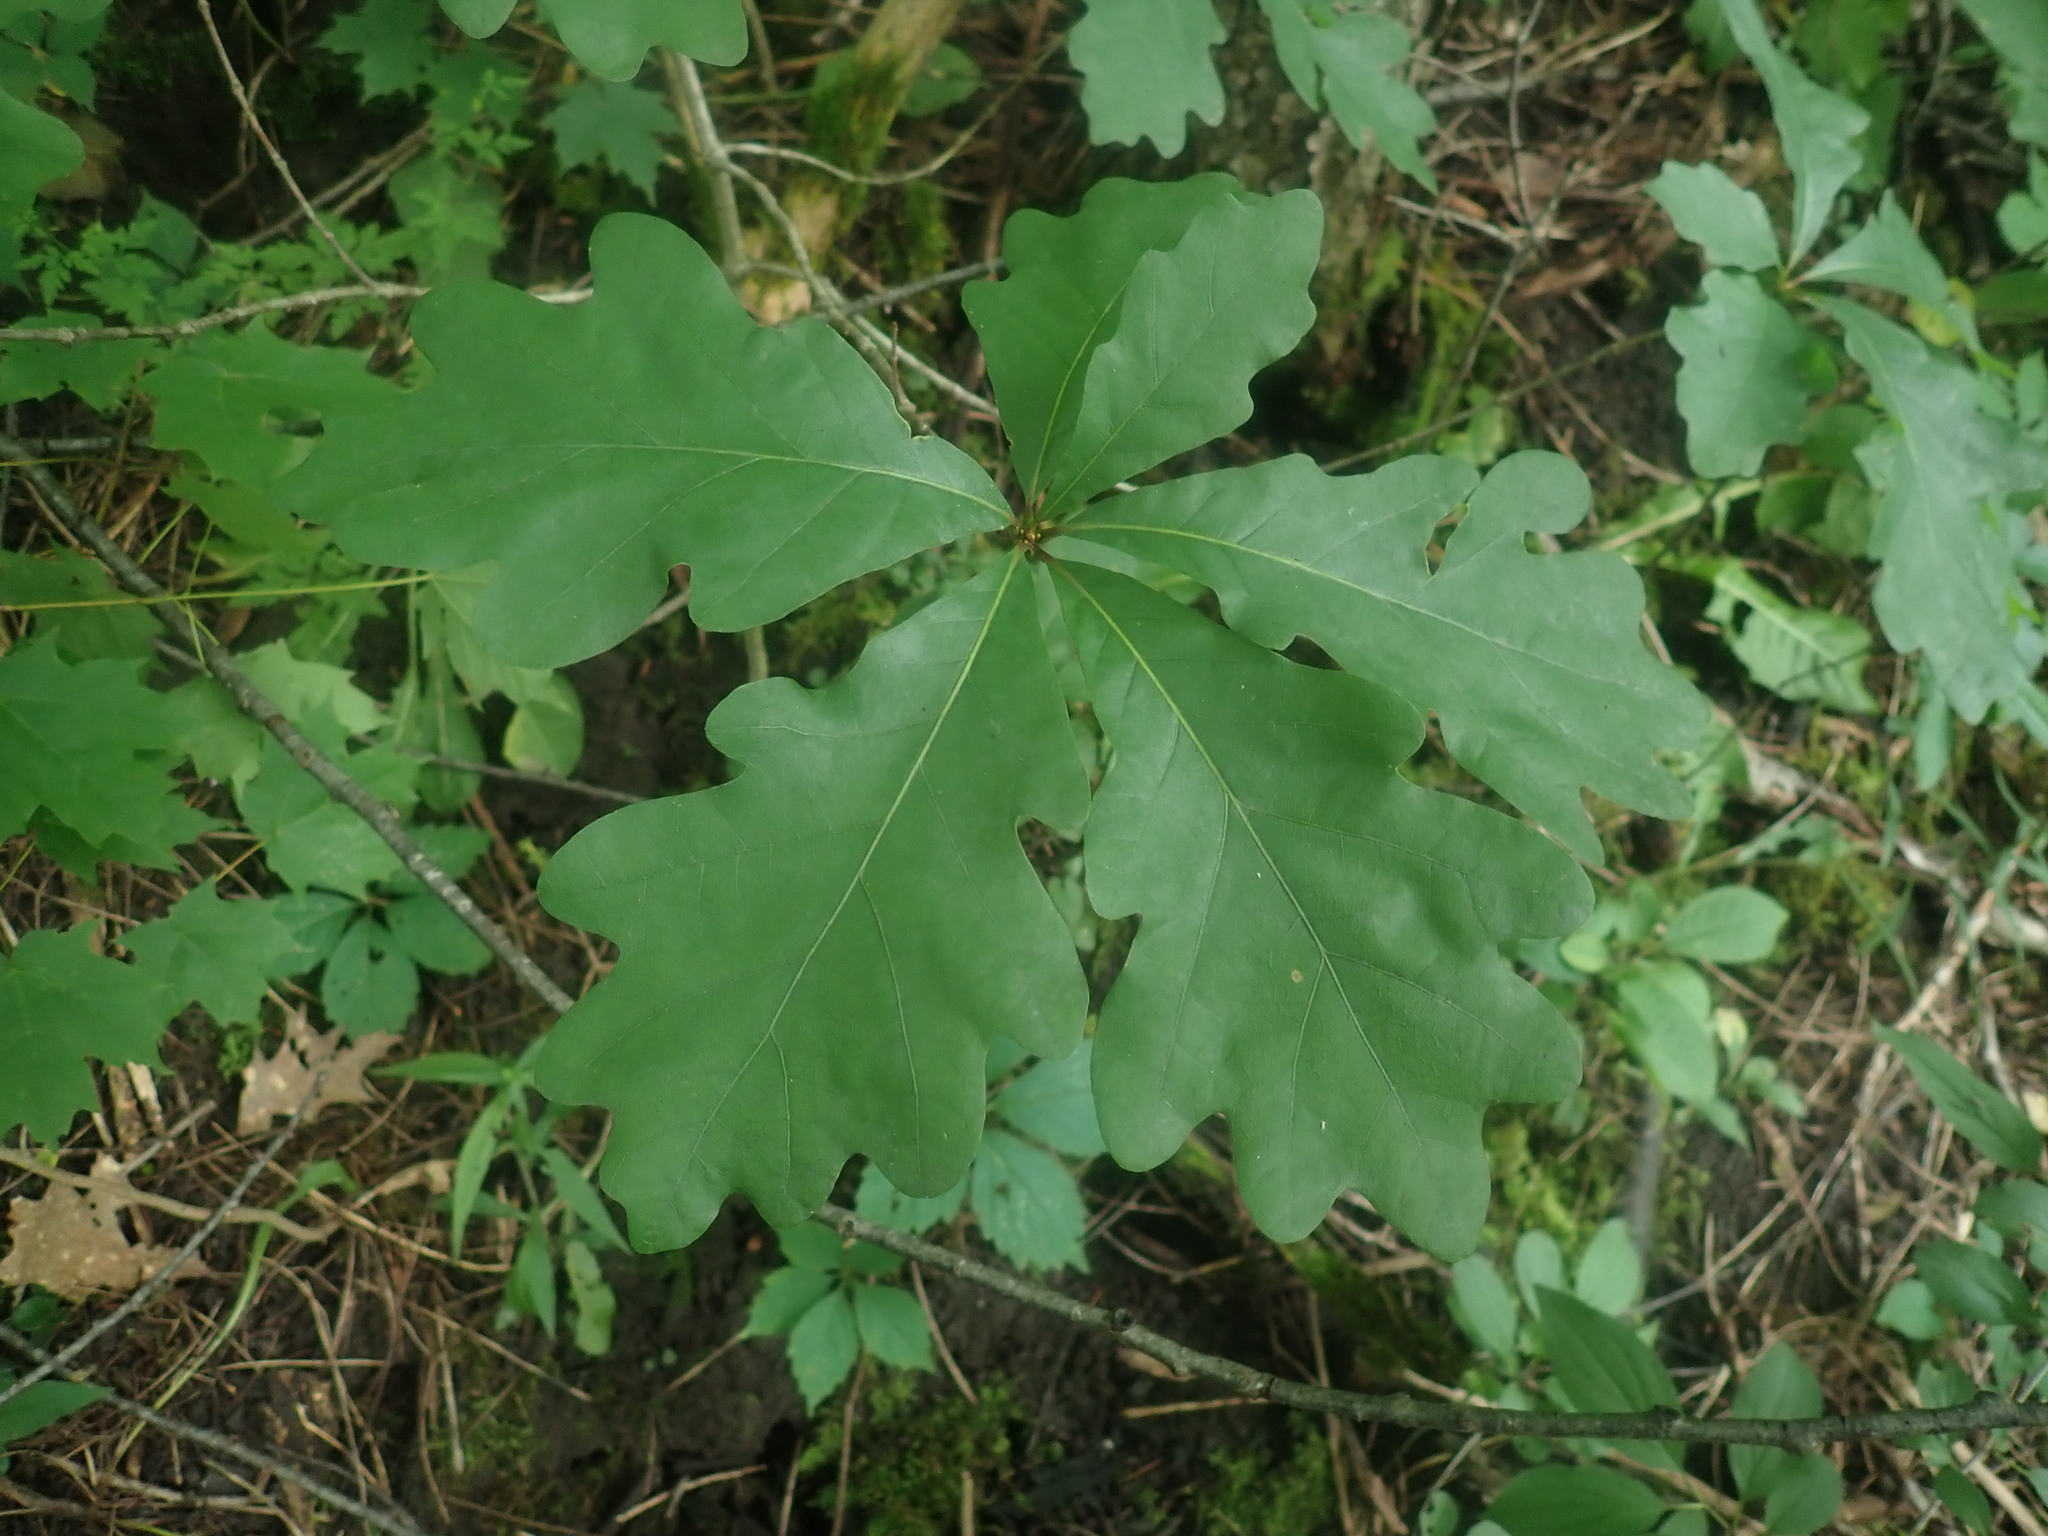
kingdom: Plantae
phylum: Tracheophyta
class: Magnoliopsida
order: Fagales
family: Fagaceae
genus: Quercus
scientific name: Quercus alba
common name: White oak
